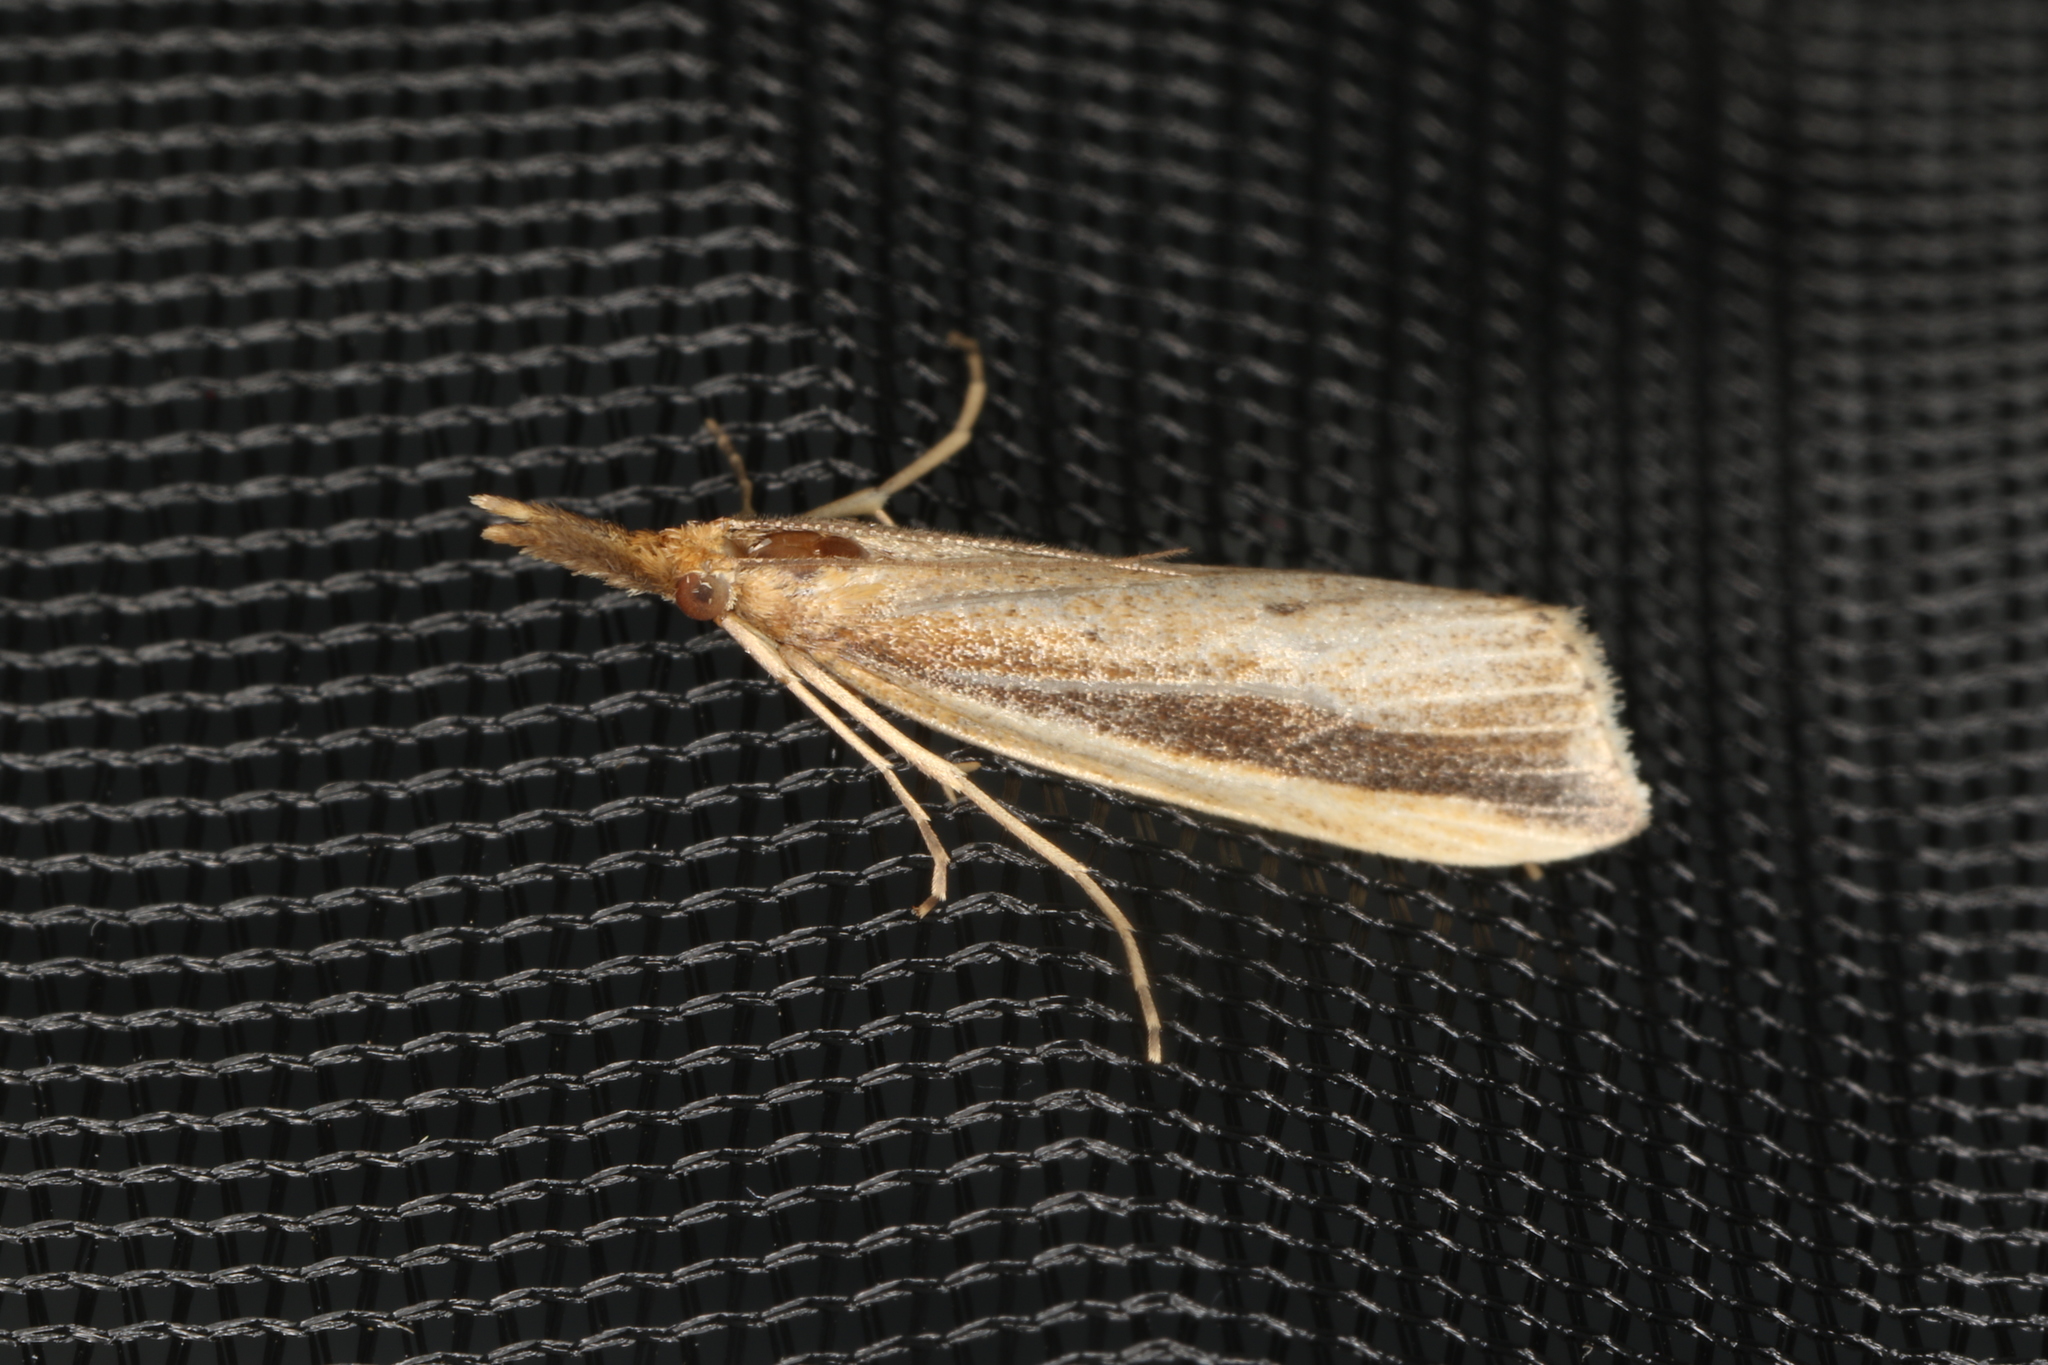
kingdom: Animalia
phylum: Arthropoda
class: Insecta
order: Lepidoptera
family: Crambidae
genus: Donacaula
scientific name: Donacaula mucronella
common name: Scarce water-veneer
